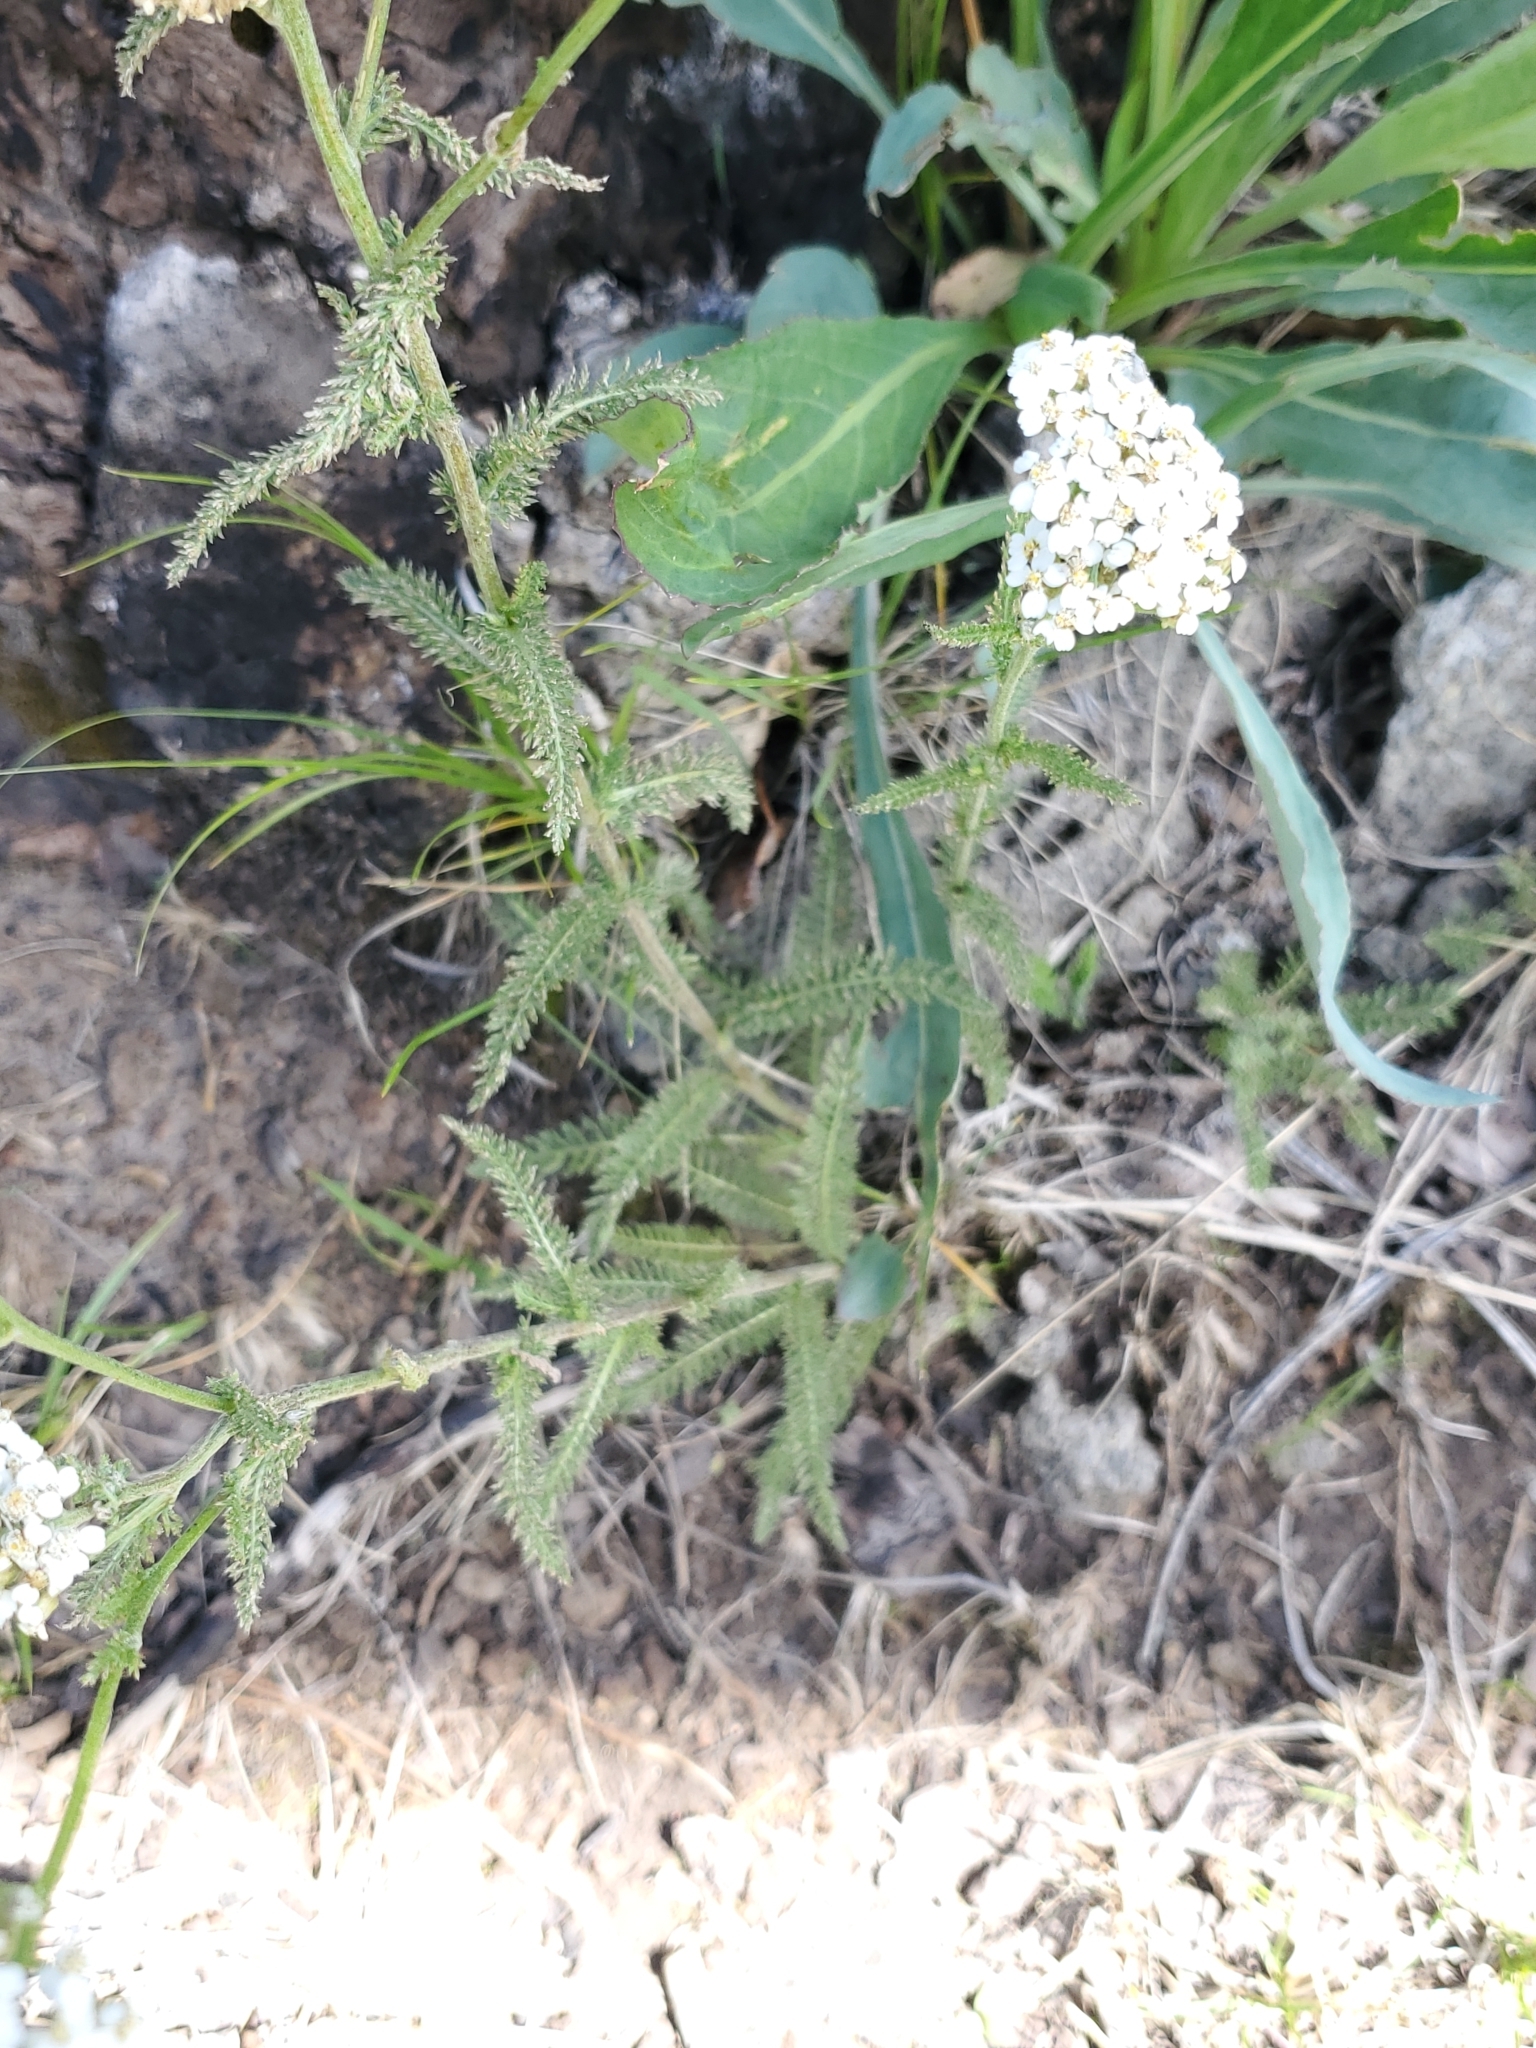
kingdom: Plantae
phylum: Tracheophyta
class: Magnoliopsida
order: Asterales
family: Asteraceae
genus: Achillea
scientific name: Achillea millefolium
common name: Yarrow
